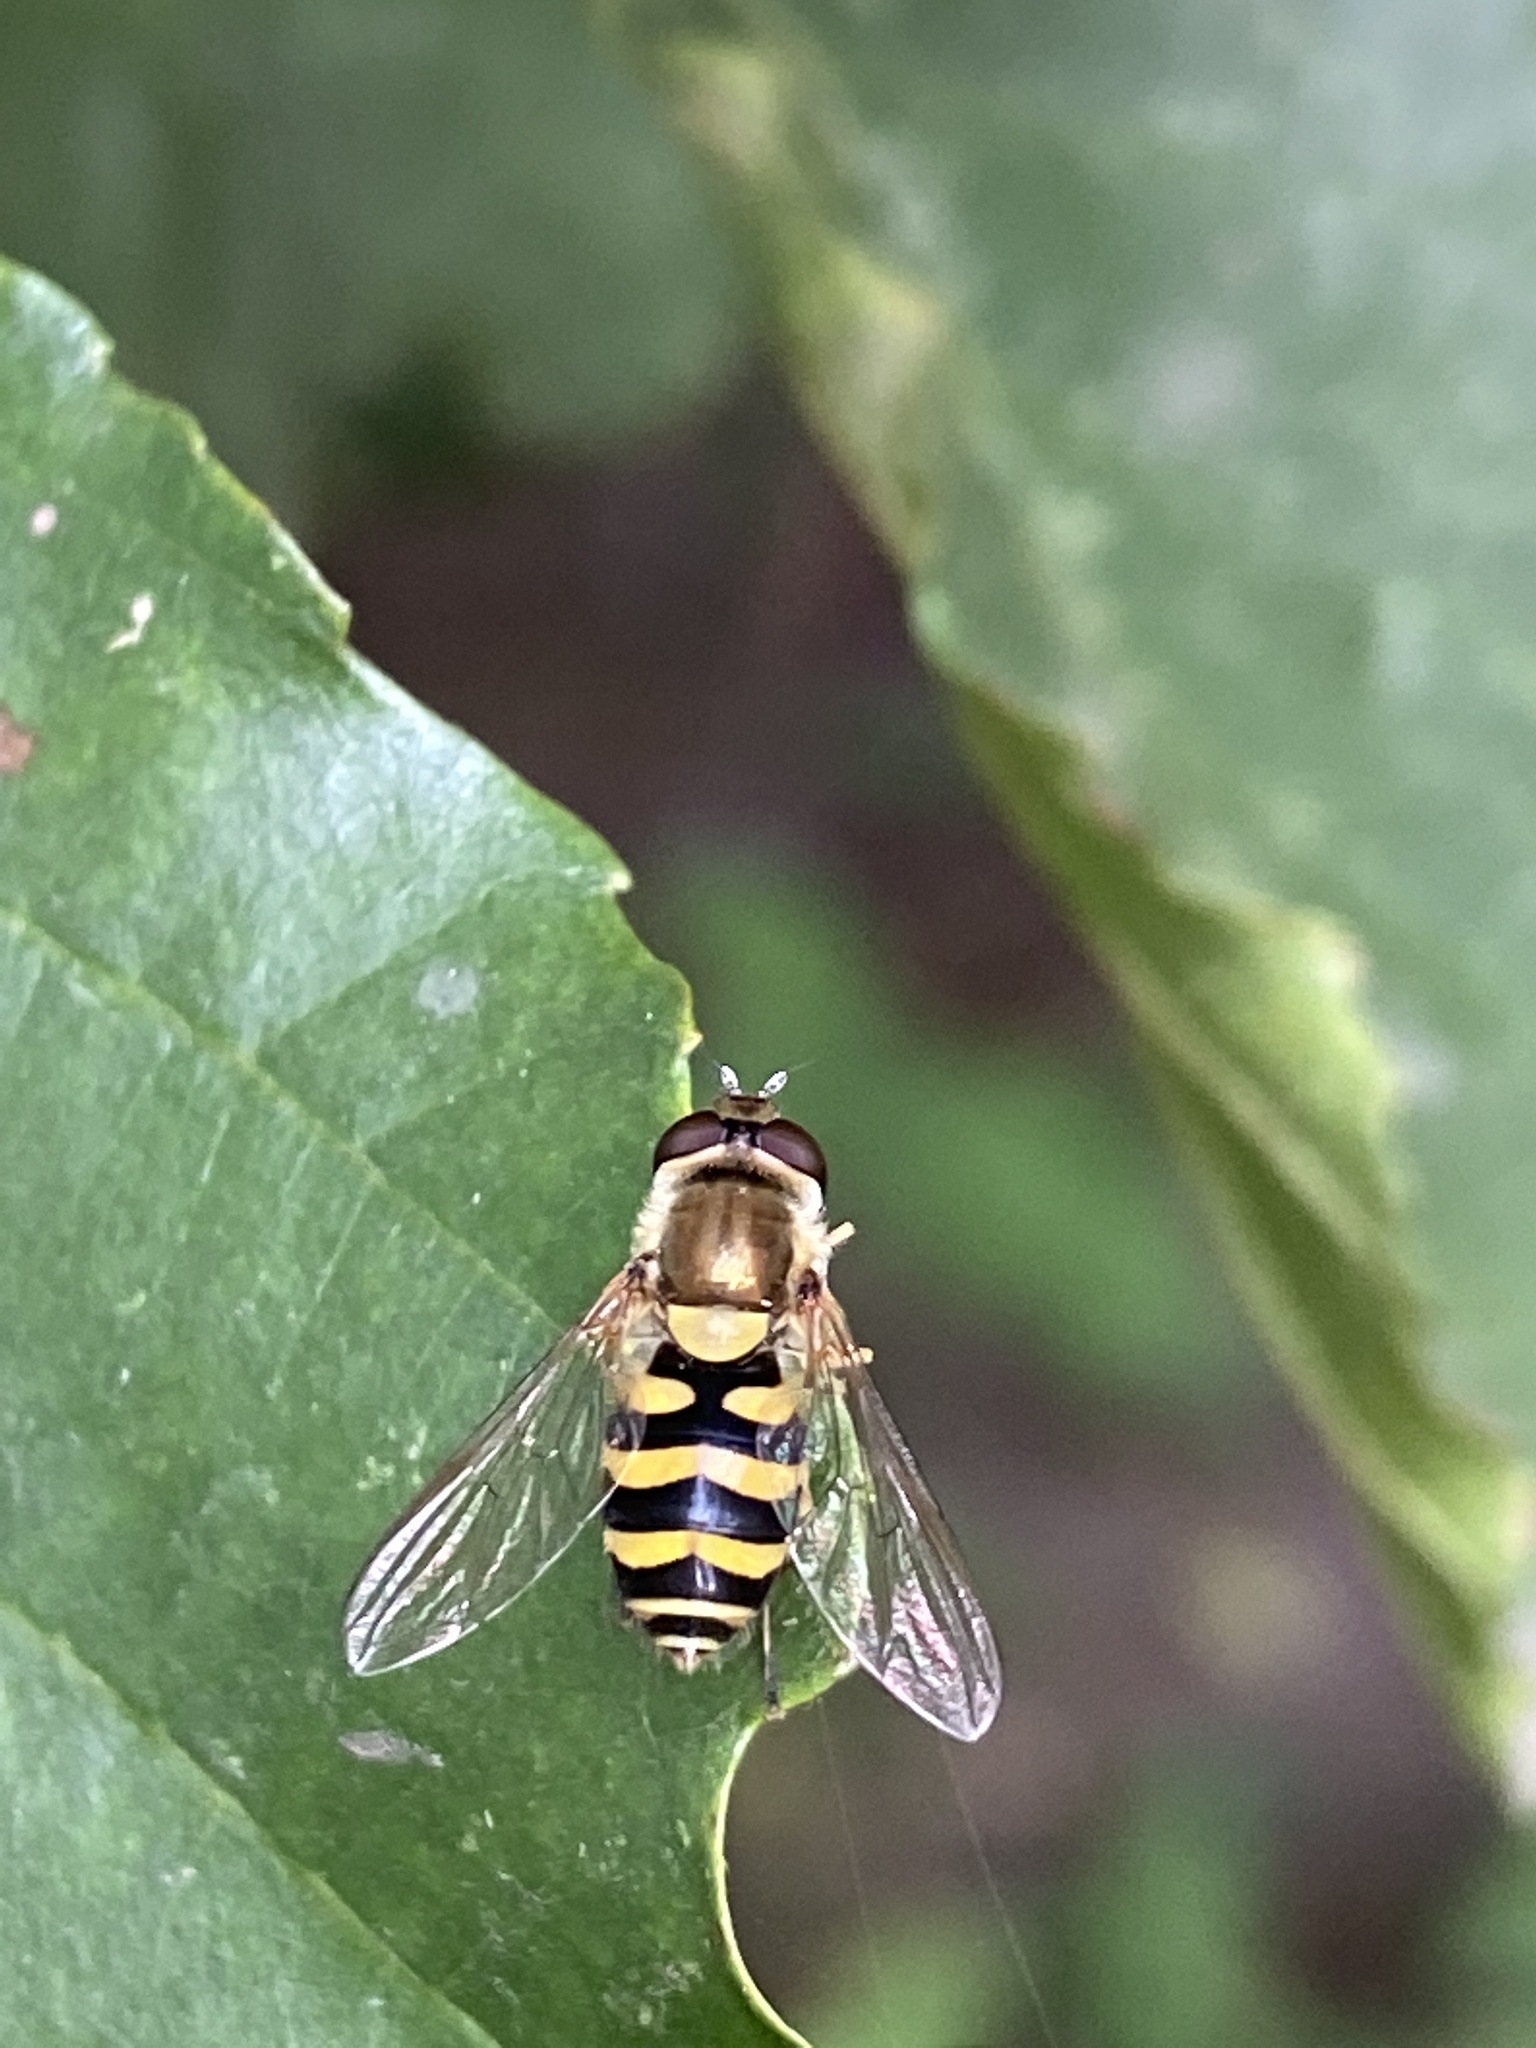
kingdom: Animalia
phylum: Arthropoda
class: Insecta
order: Diptera
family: Syrphidae
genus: Syrphus
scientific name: Syrphus
